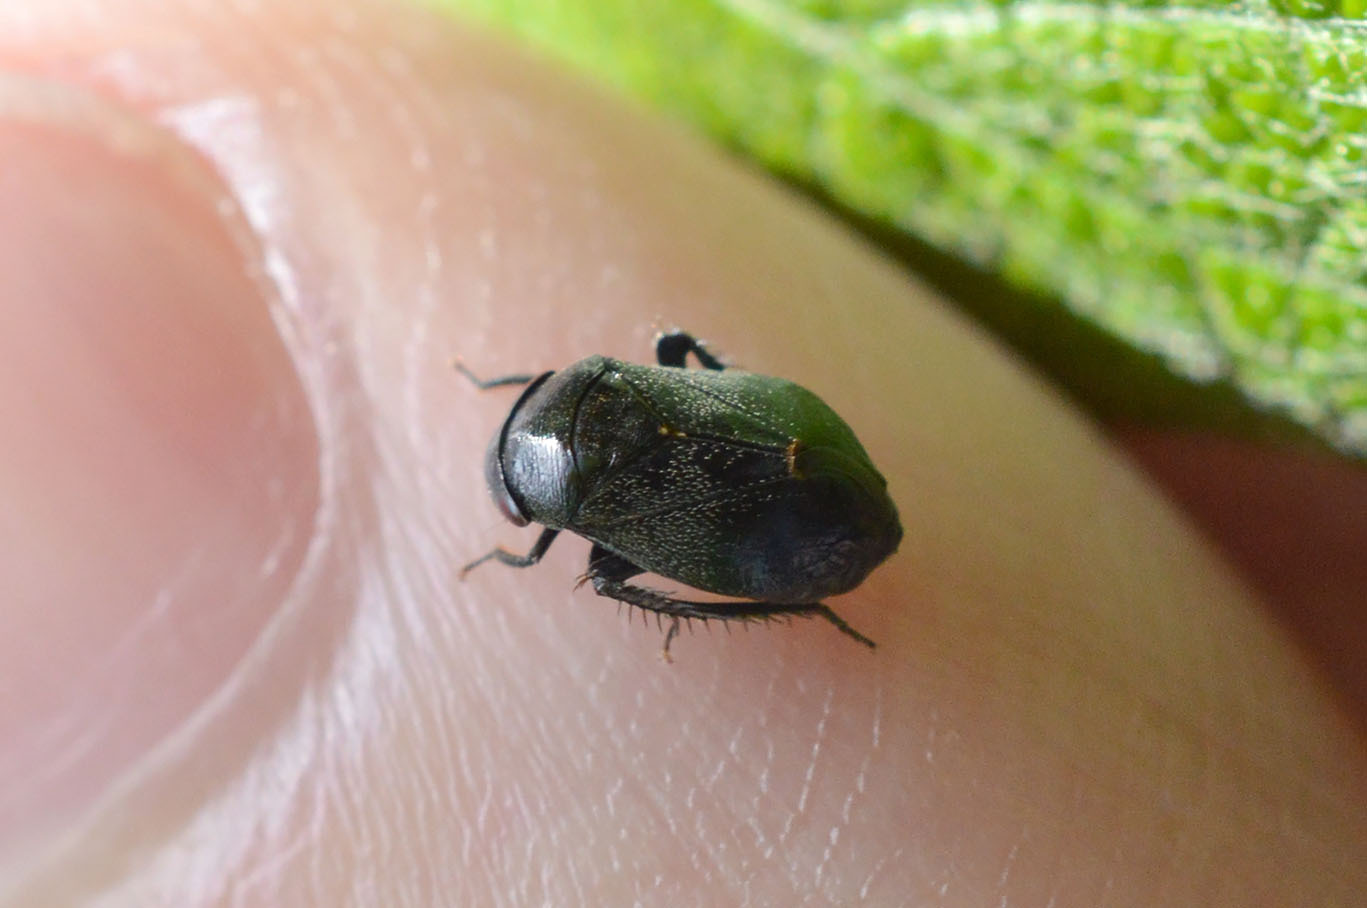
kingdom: Animalia
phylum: Arthropoda
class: Insecta
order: Hemiptera
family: Cicadellidae
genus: Penthimia
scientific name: Penthimia nigra
